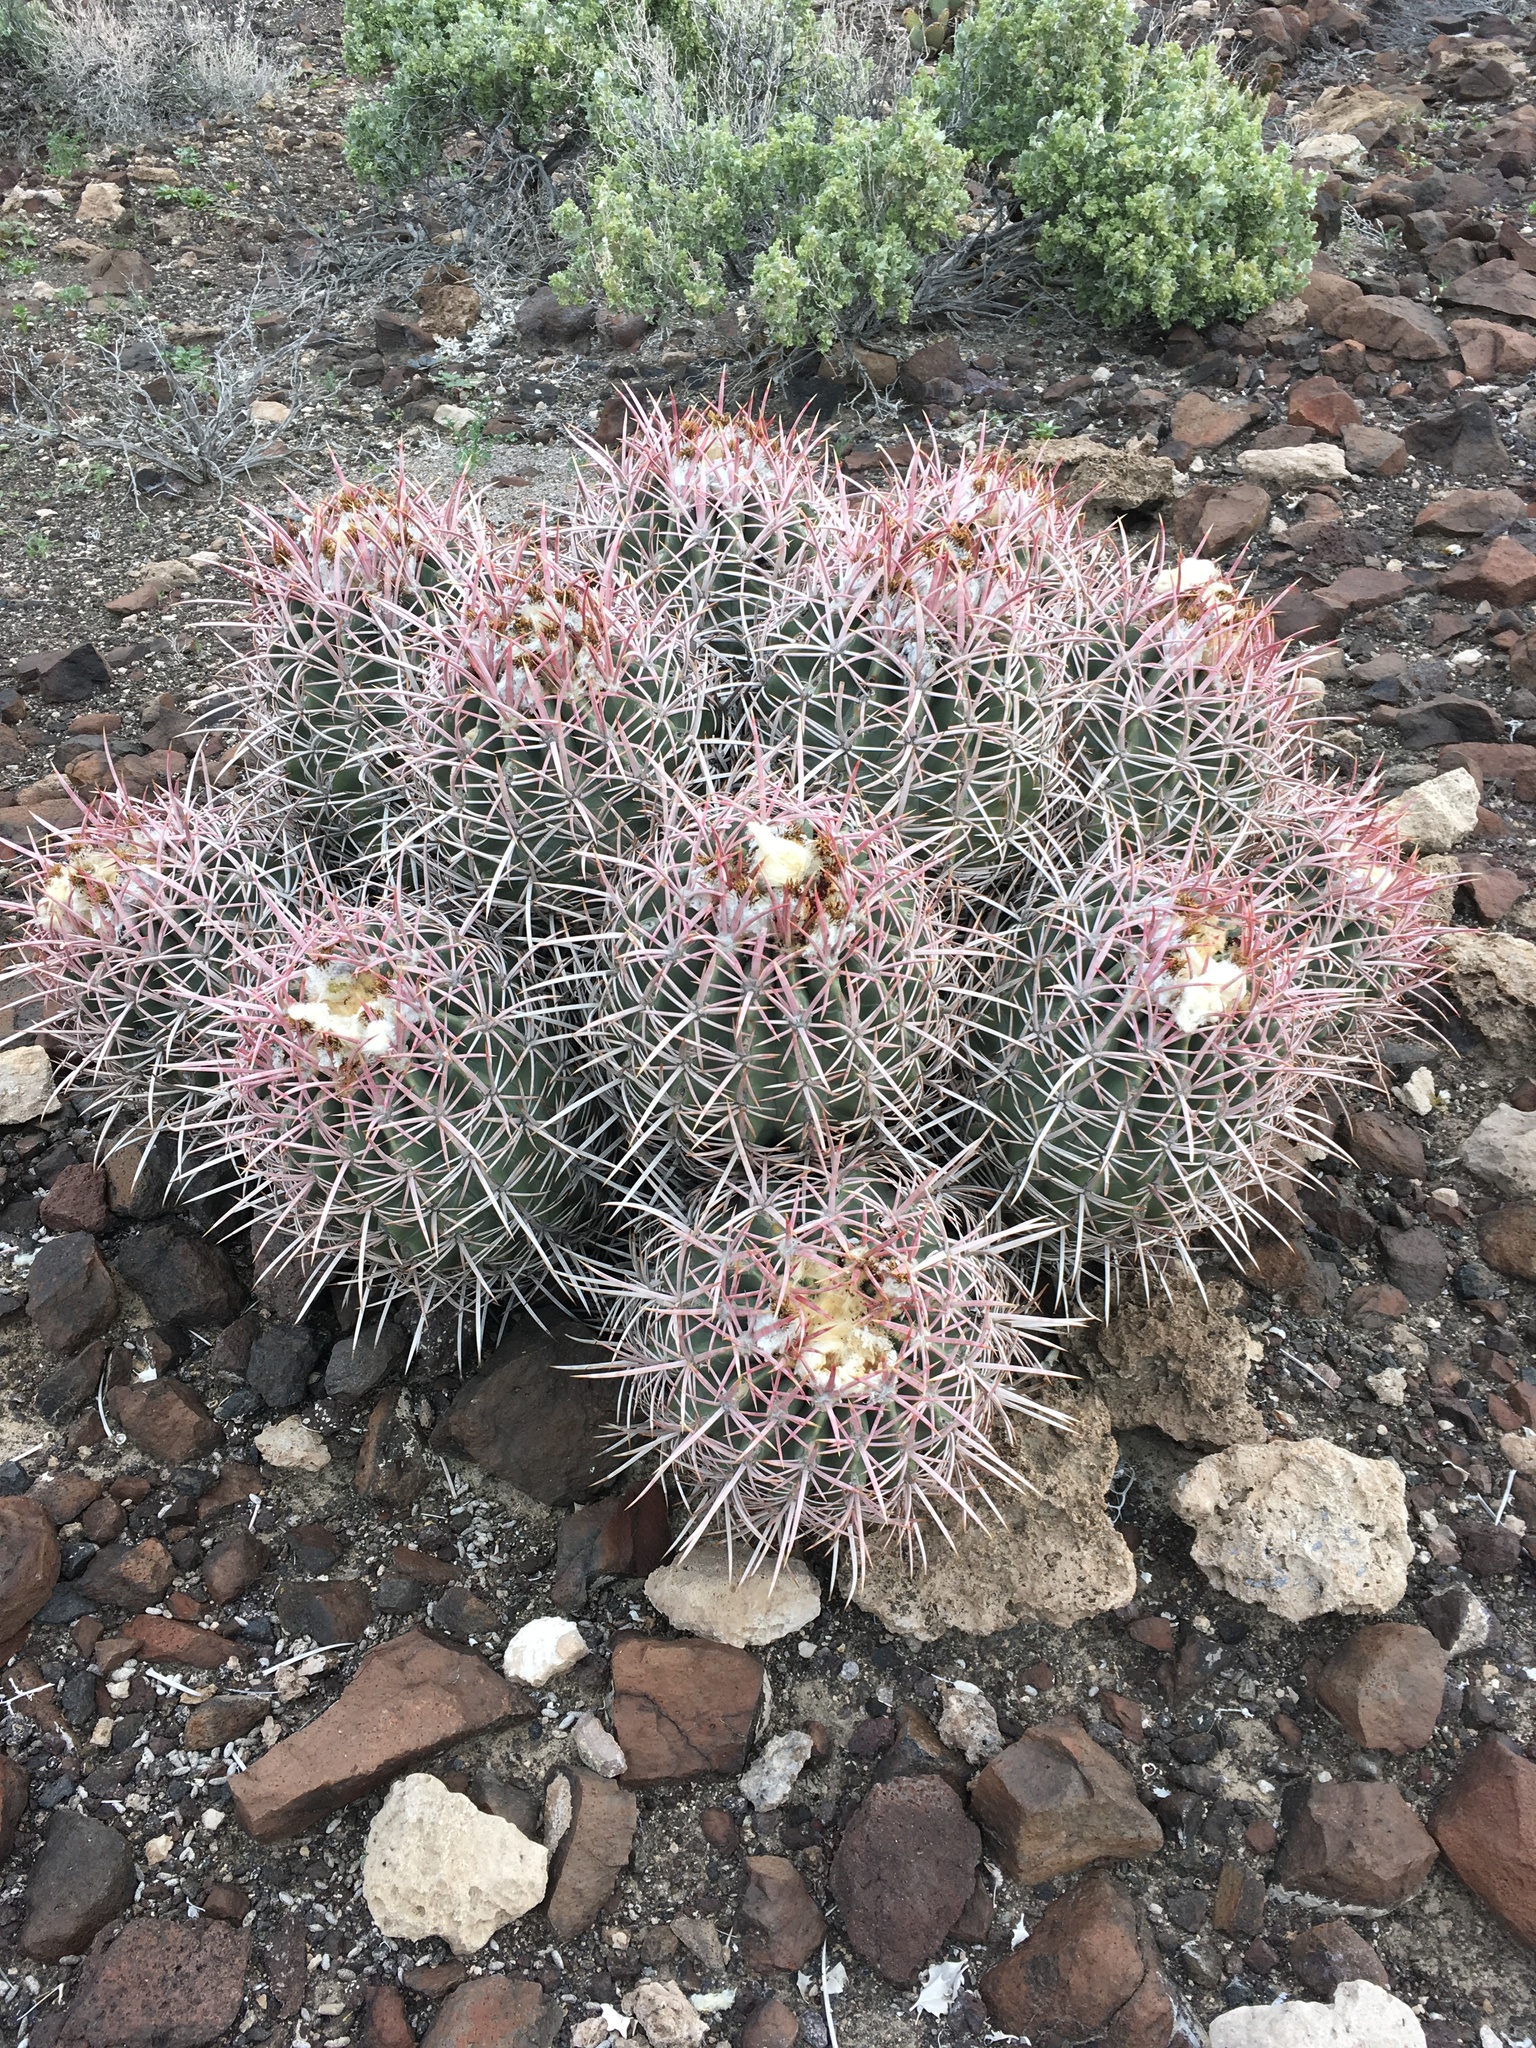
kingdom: Plantae
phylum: Tracheophyta
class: Magnoliopsida
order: Caryophyllales
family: Cactaceae
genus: Echinocactus
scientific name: Echinocactus polycephalus
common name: Cottontop cactus
